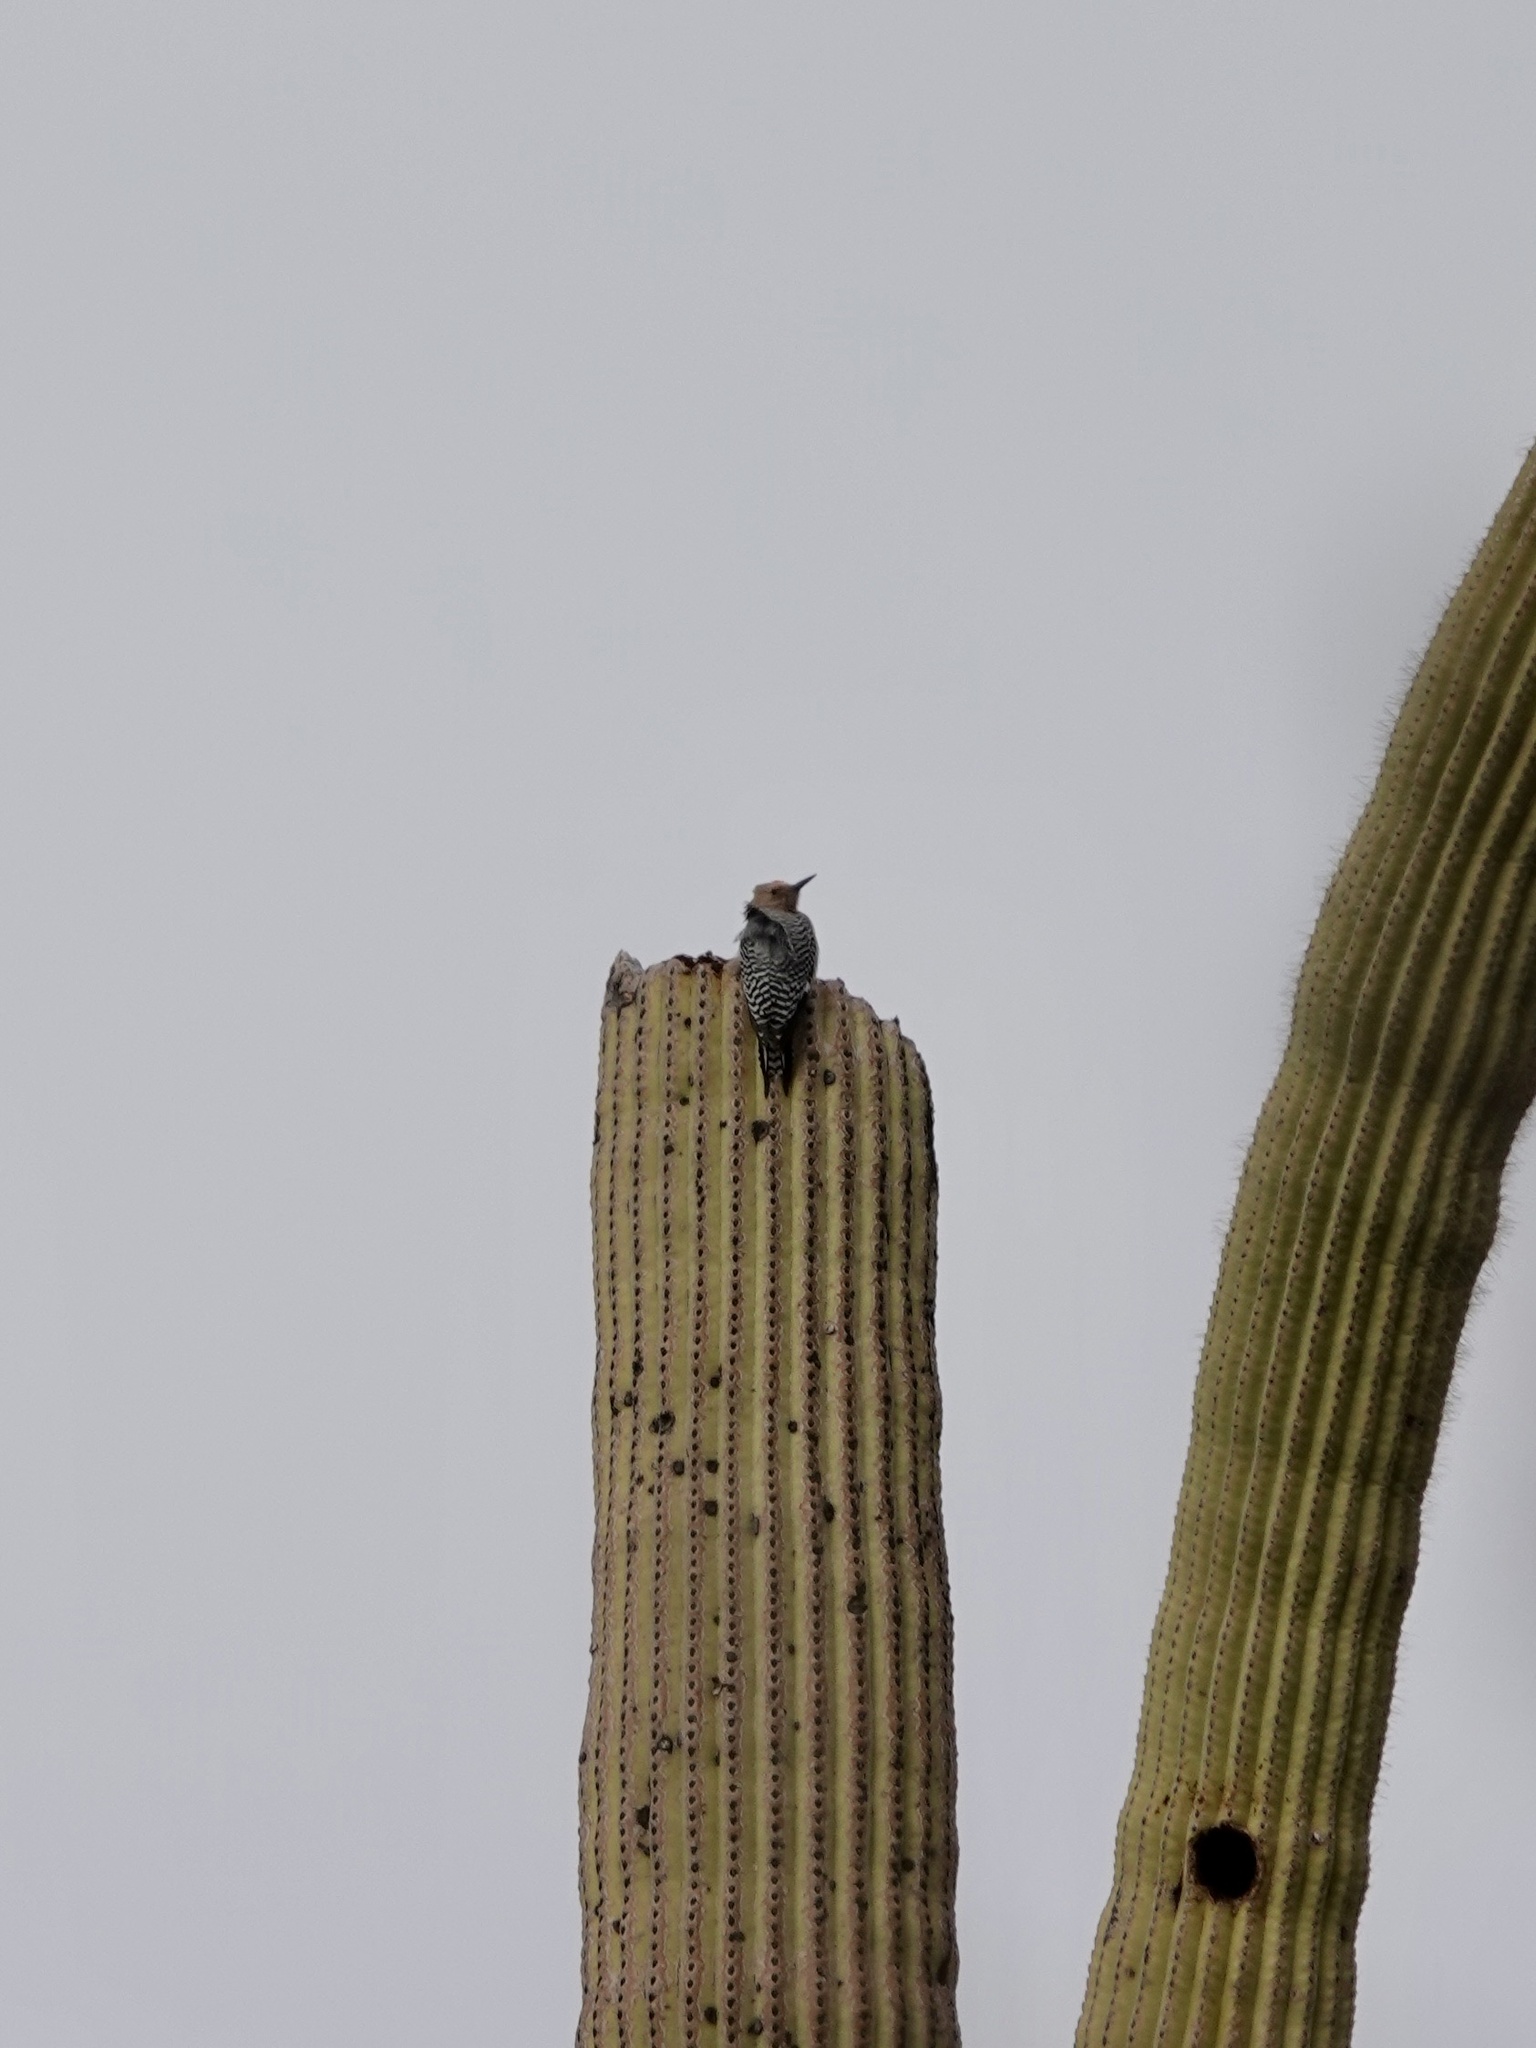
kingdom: Animalia
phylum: Chordata
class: Aves
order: Piciformes
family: Picidae
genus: Melanerpes
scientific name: Melanerpes uropygialis
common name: Gila woodpecker
